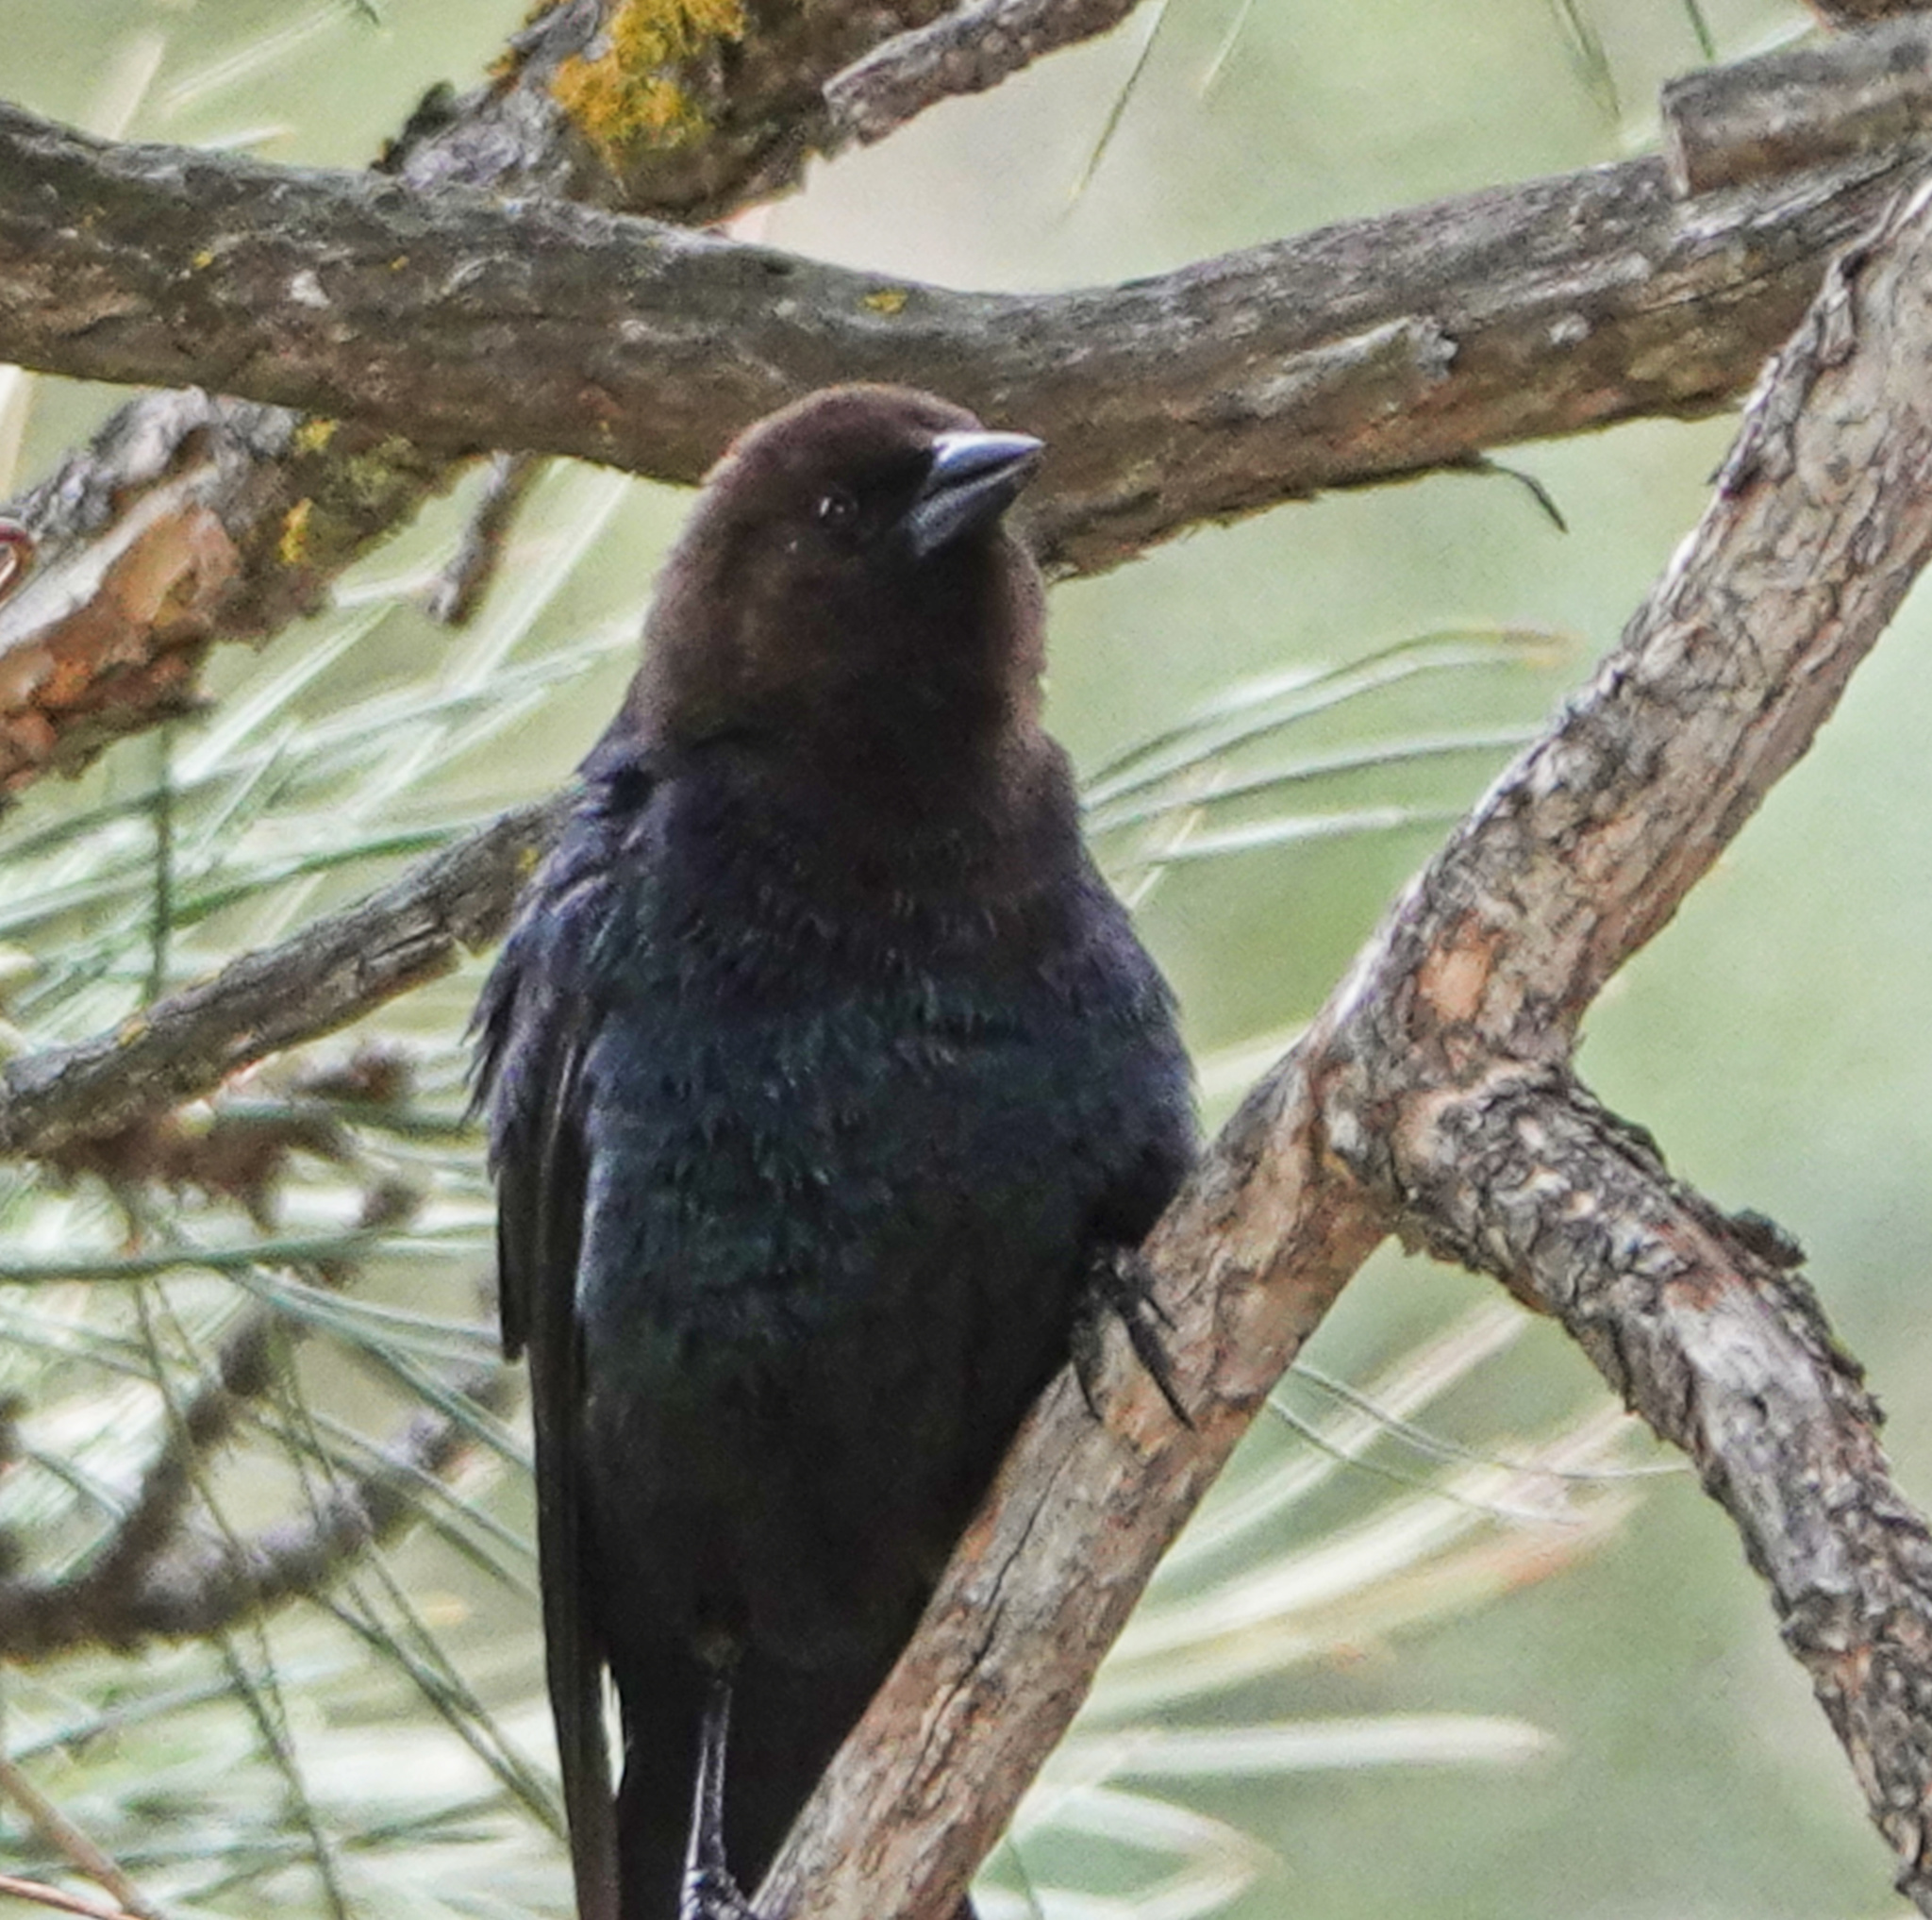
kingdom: Animalia
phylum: Chordata
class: Aves
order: Passeriformes
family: Icteridae
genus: Molothrus
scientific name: Molothrus ater
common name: Brown-headed cowbird
